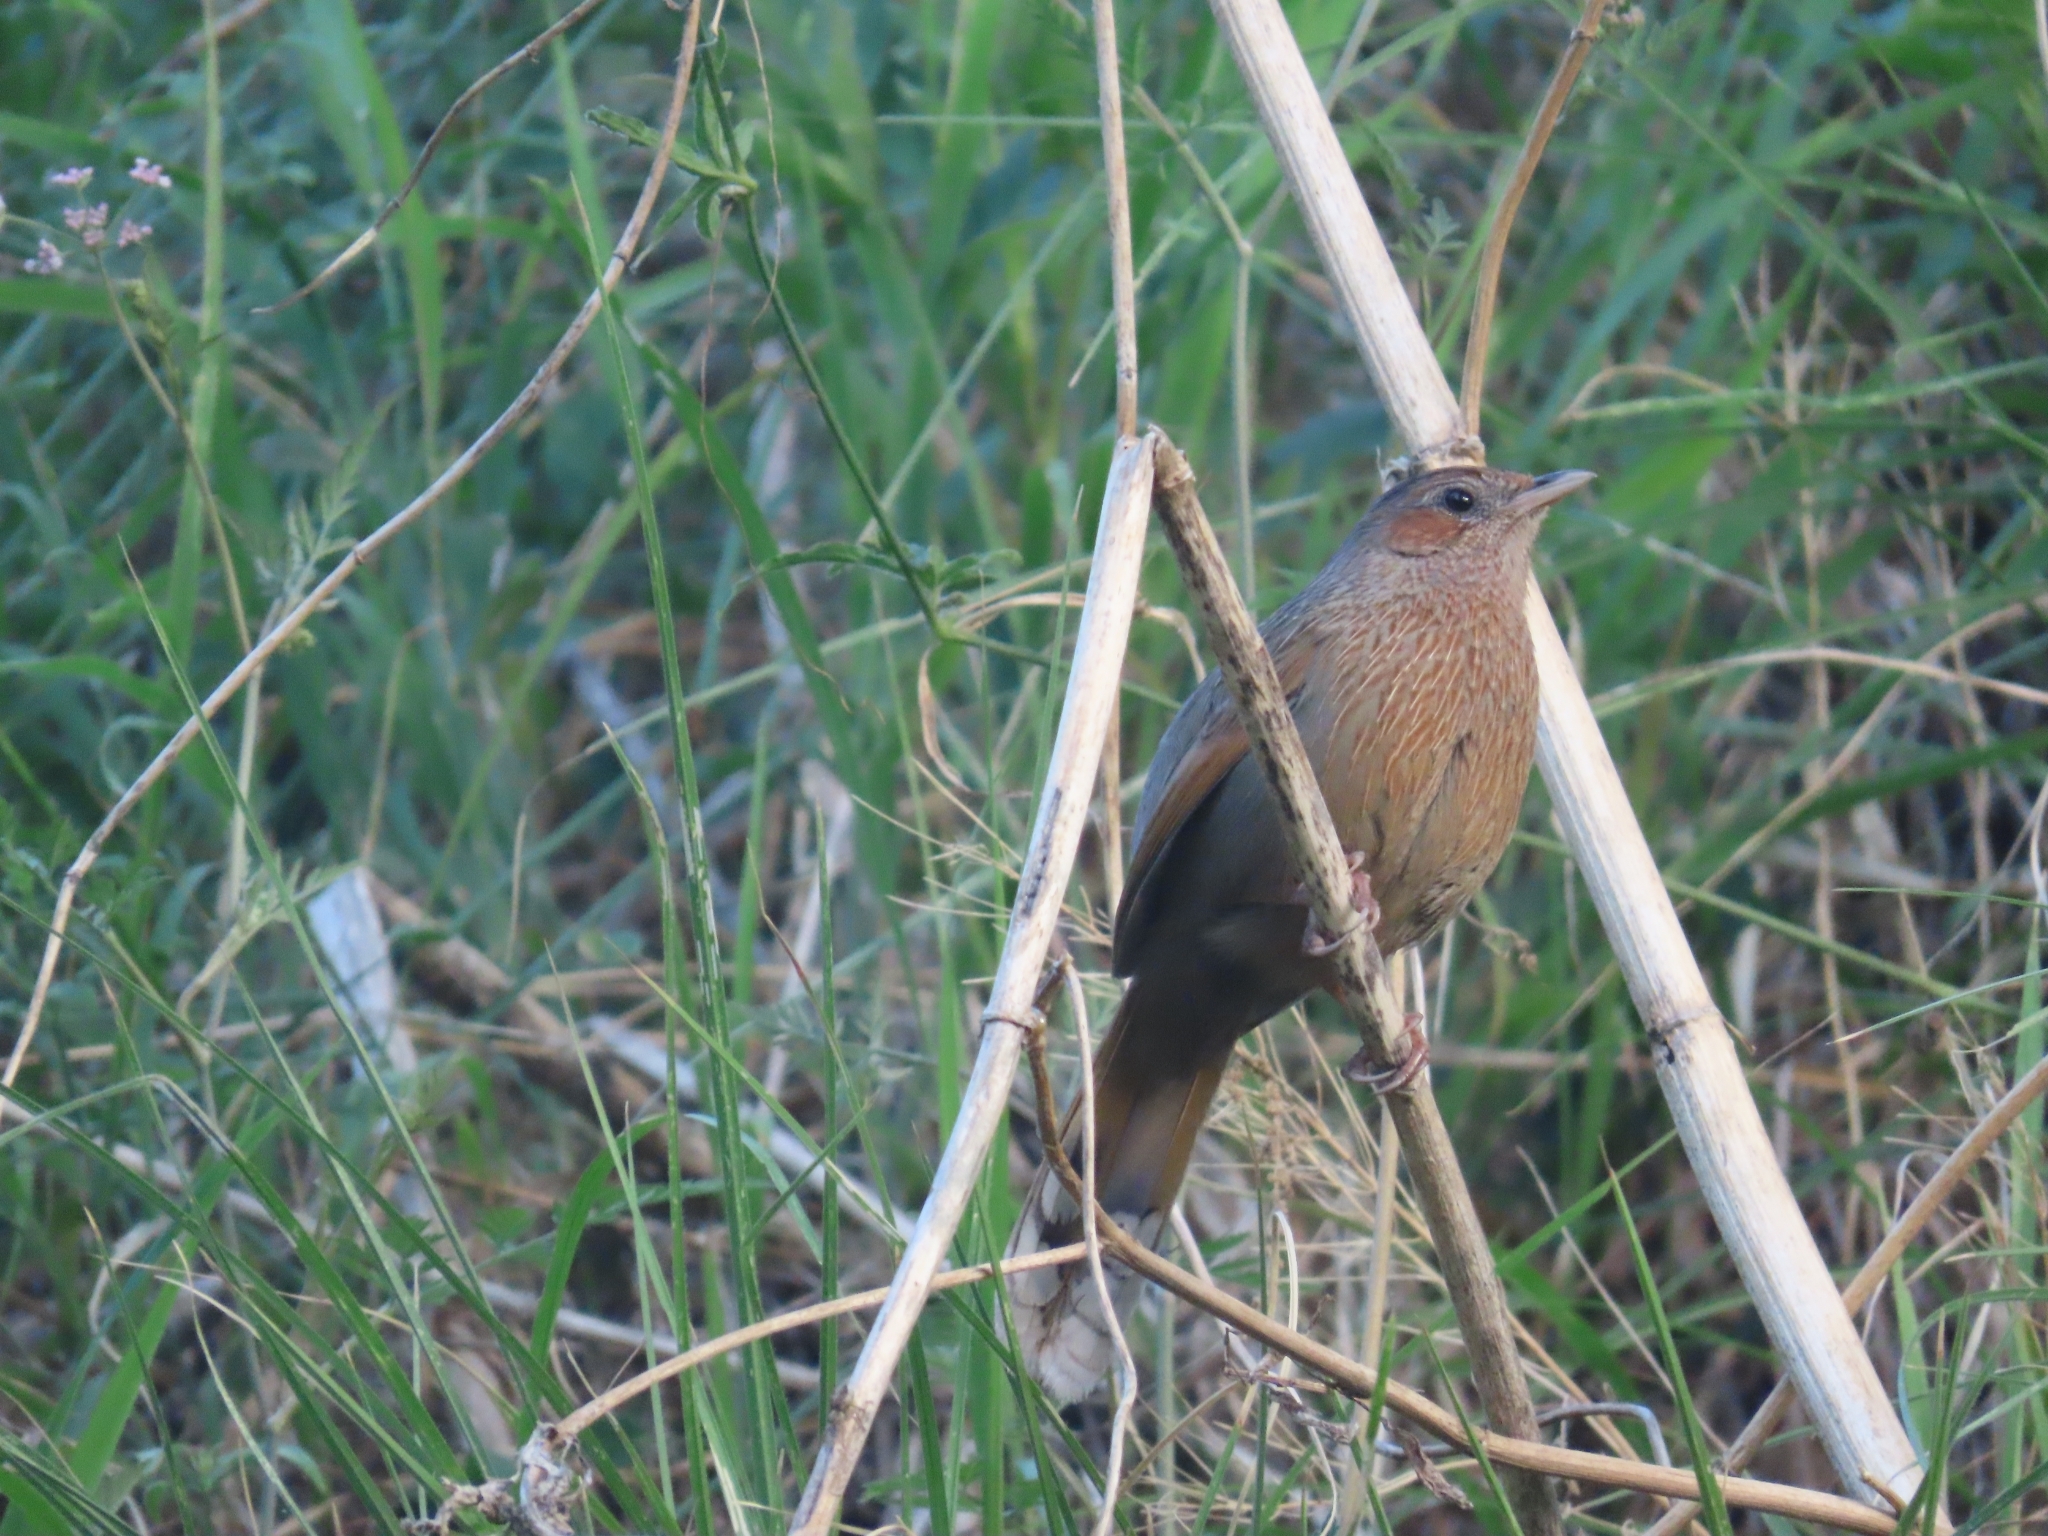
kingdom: Animalia
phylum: Chordata
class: Aves
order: Passeriformes
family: Leiothrichidae
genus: Trochalopteron
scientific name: Trochalopteron lineatum
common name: Streaked laughingthrush
